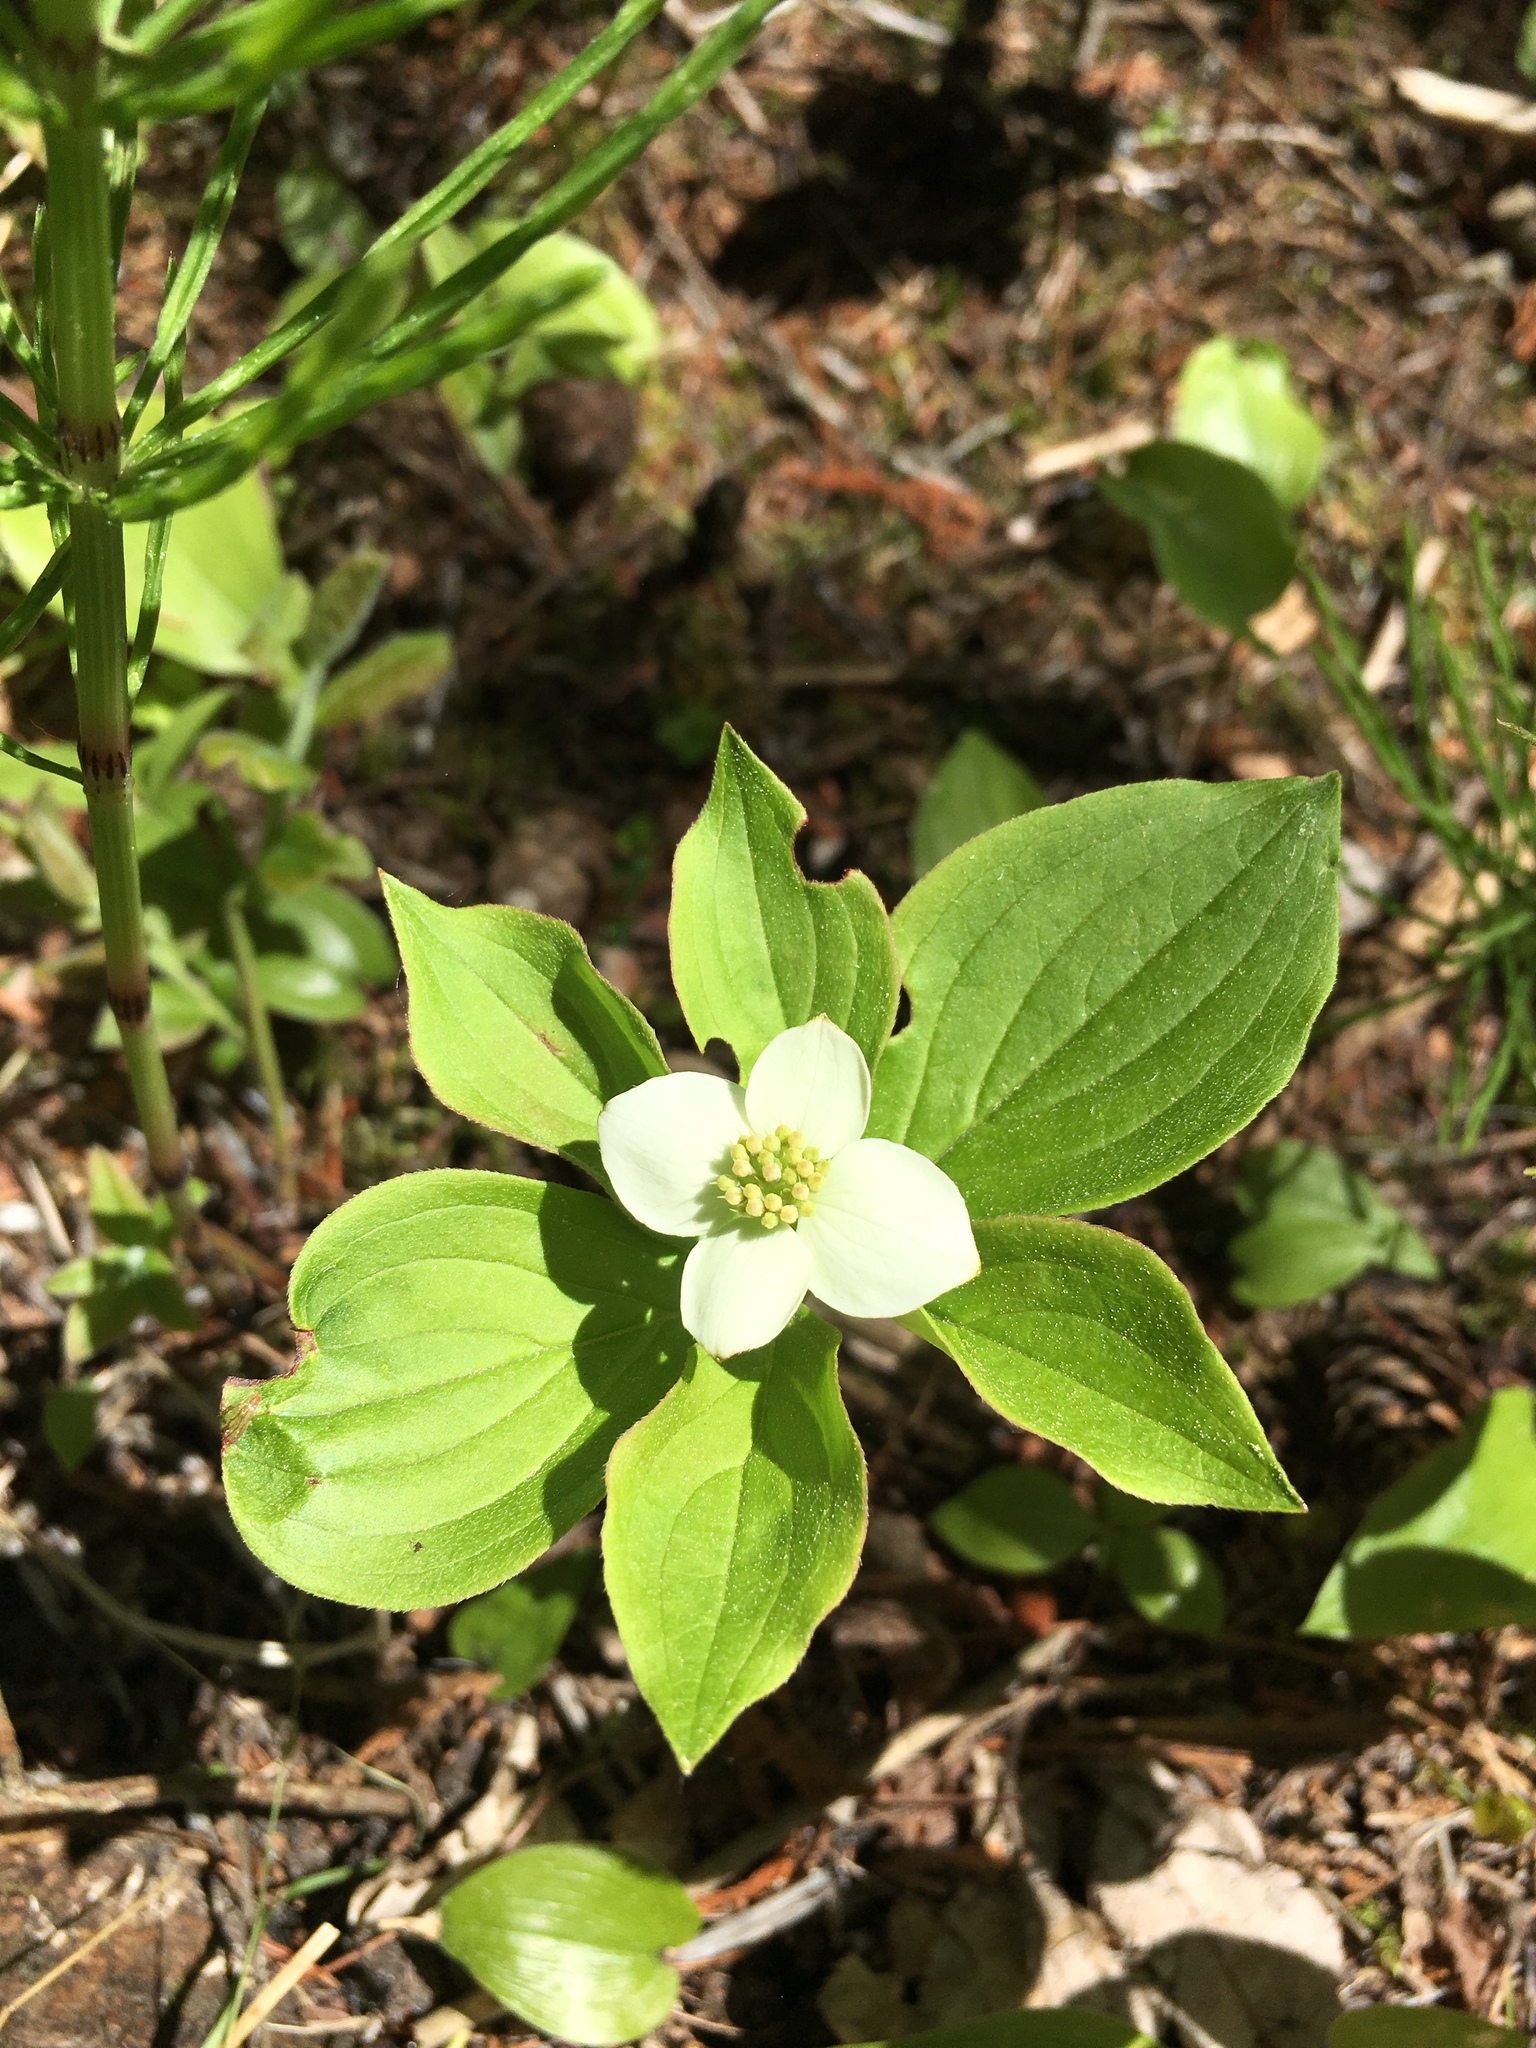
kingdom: Plantae
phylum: Tracheophyta
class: Magnoliopsida
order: Cornales
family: Cornaceae
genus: Cornus
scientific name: Cornus canadensis
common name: Creeping dogwood
